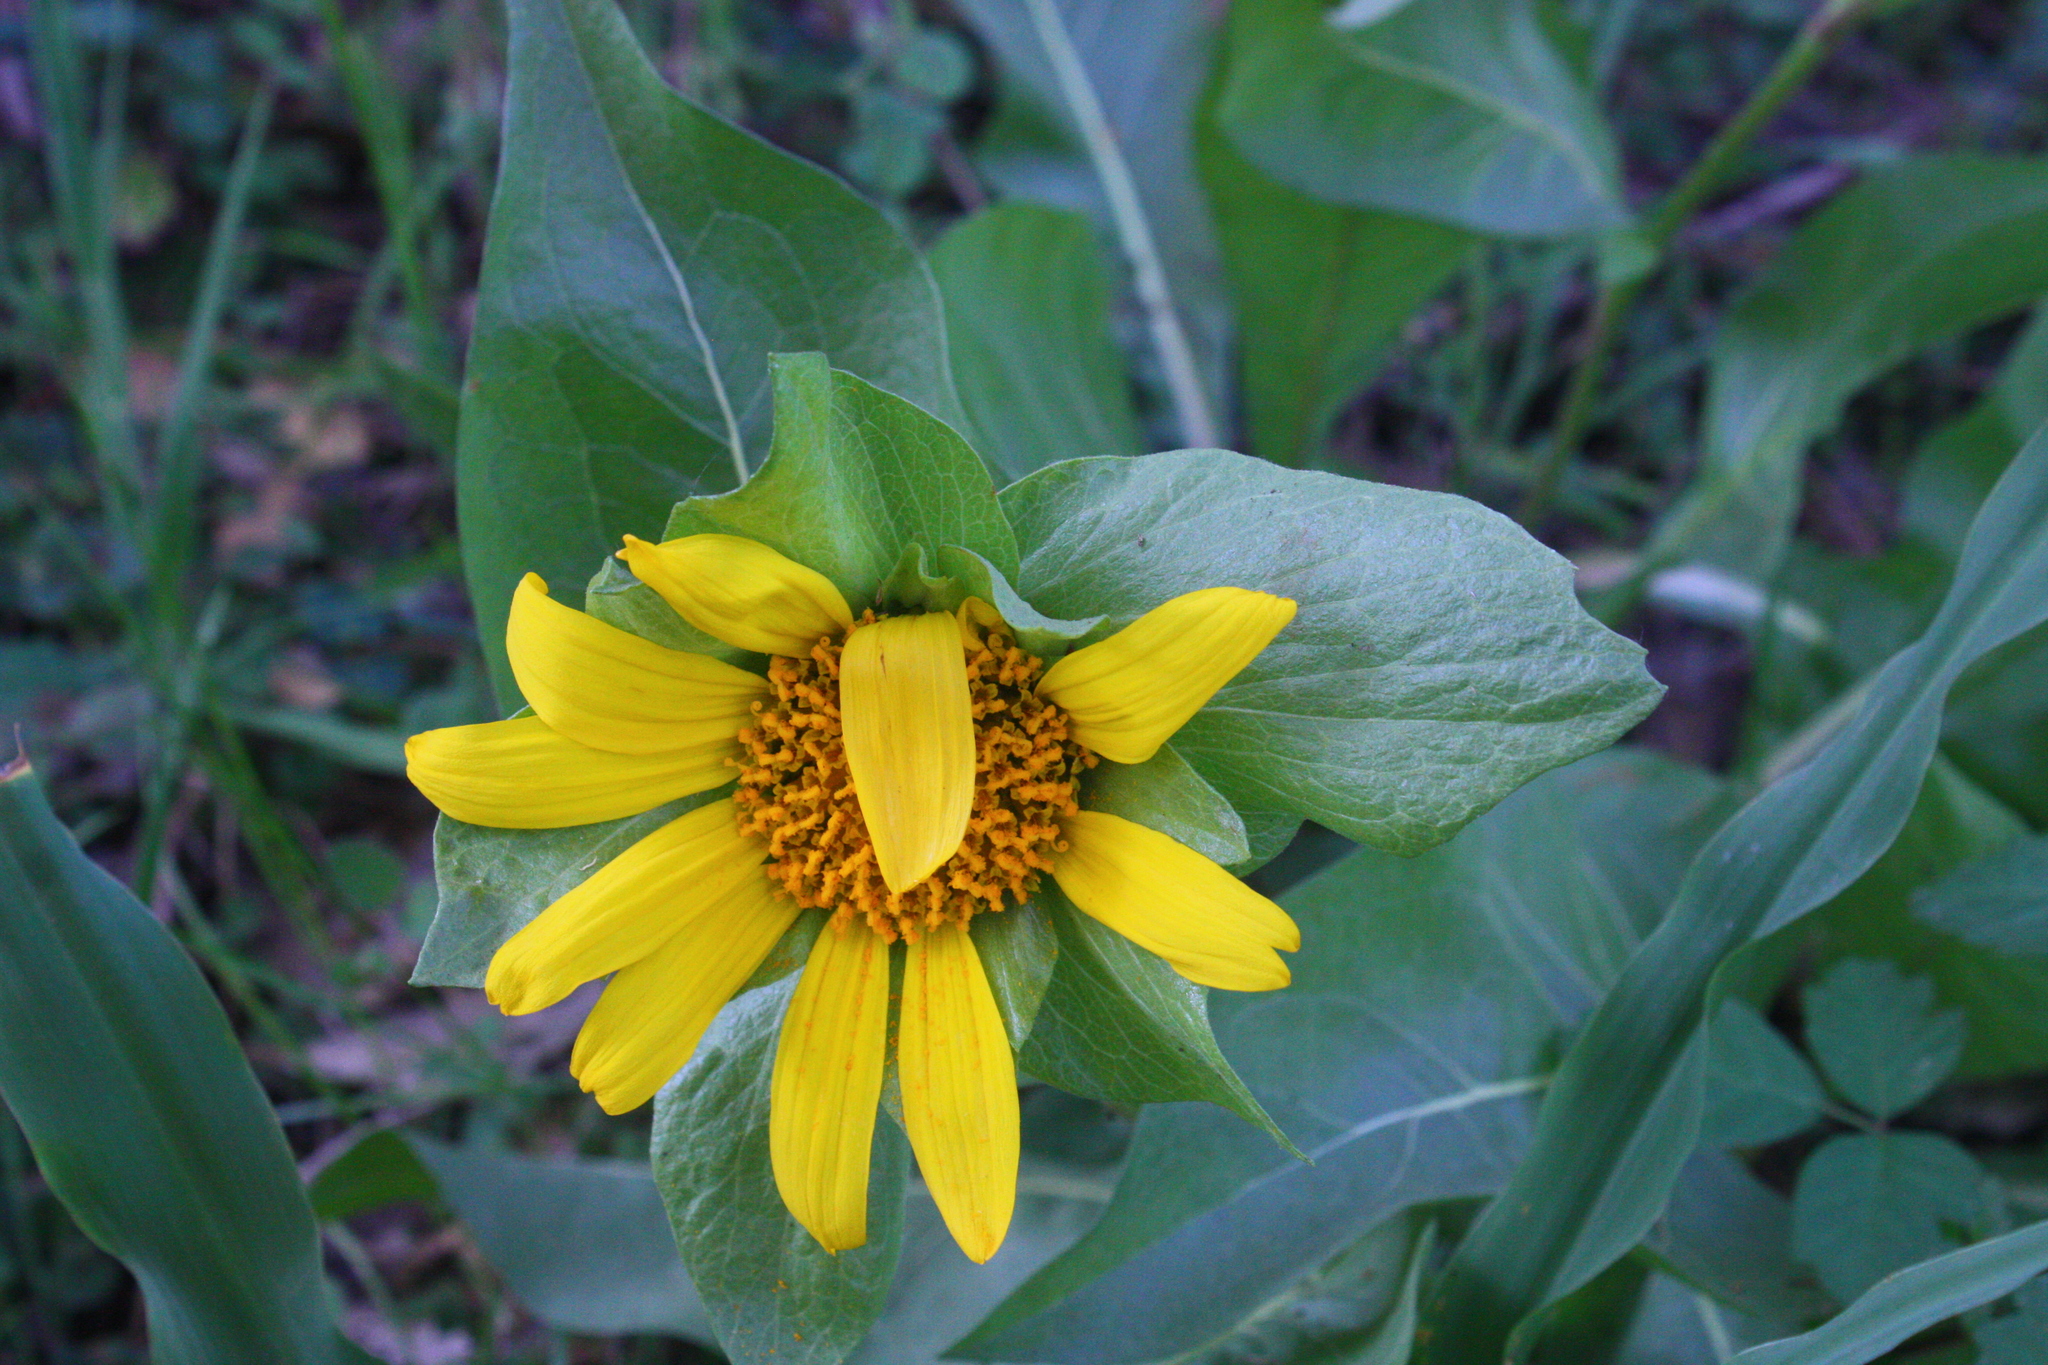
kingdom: Plantae
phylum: Tracheophyta
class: Magnoliopsida
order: Asterales
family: Asteraceae
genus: Wyethia
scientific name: Wyethia glabra
